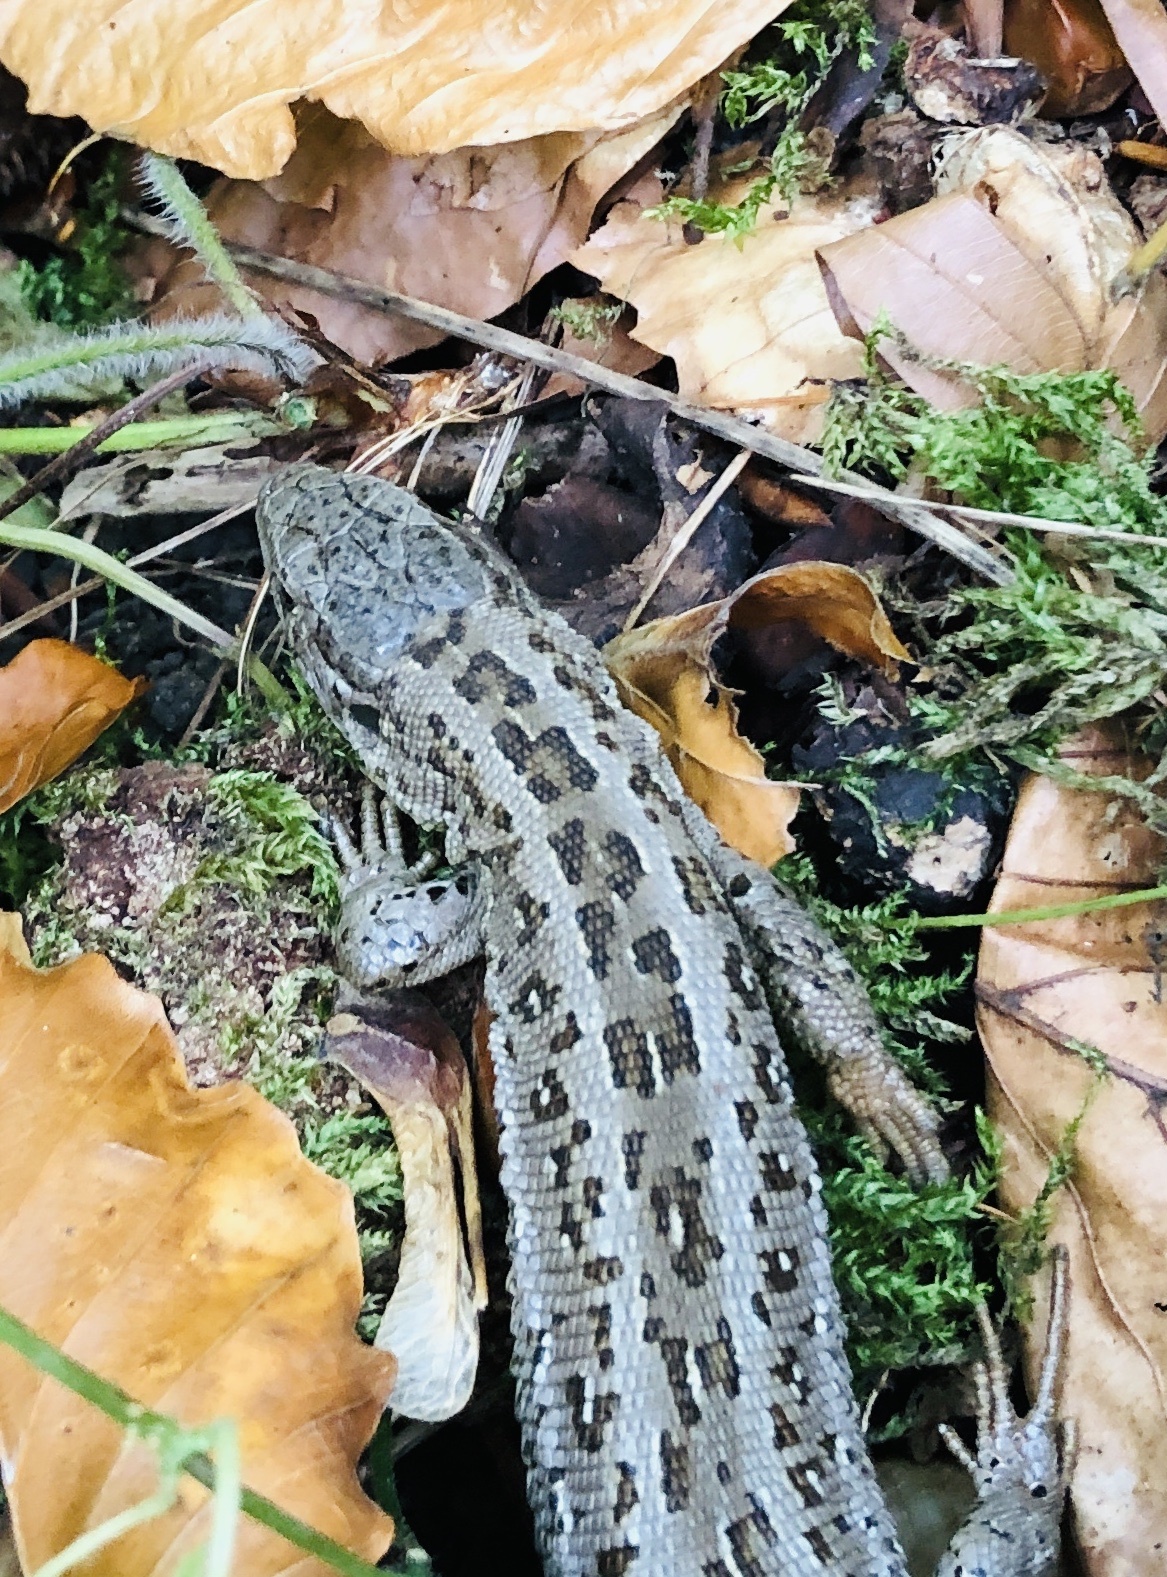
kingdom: Animalia
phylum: Chordata
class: Squamata
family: Lacertidae
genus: Lacerta
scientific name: Lacerta agilis
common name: Sand lizard
